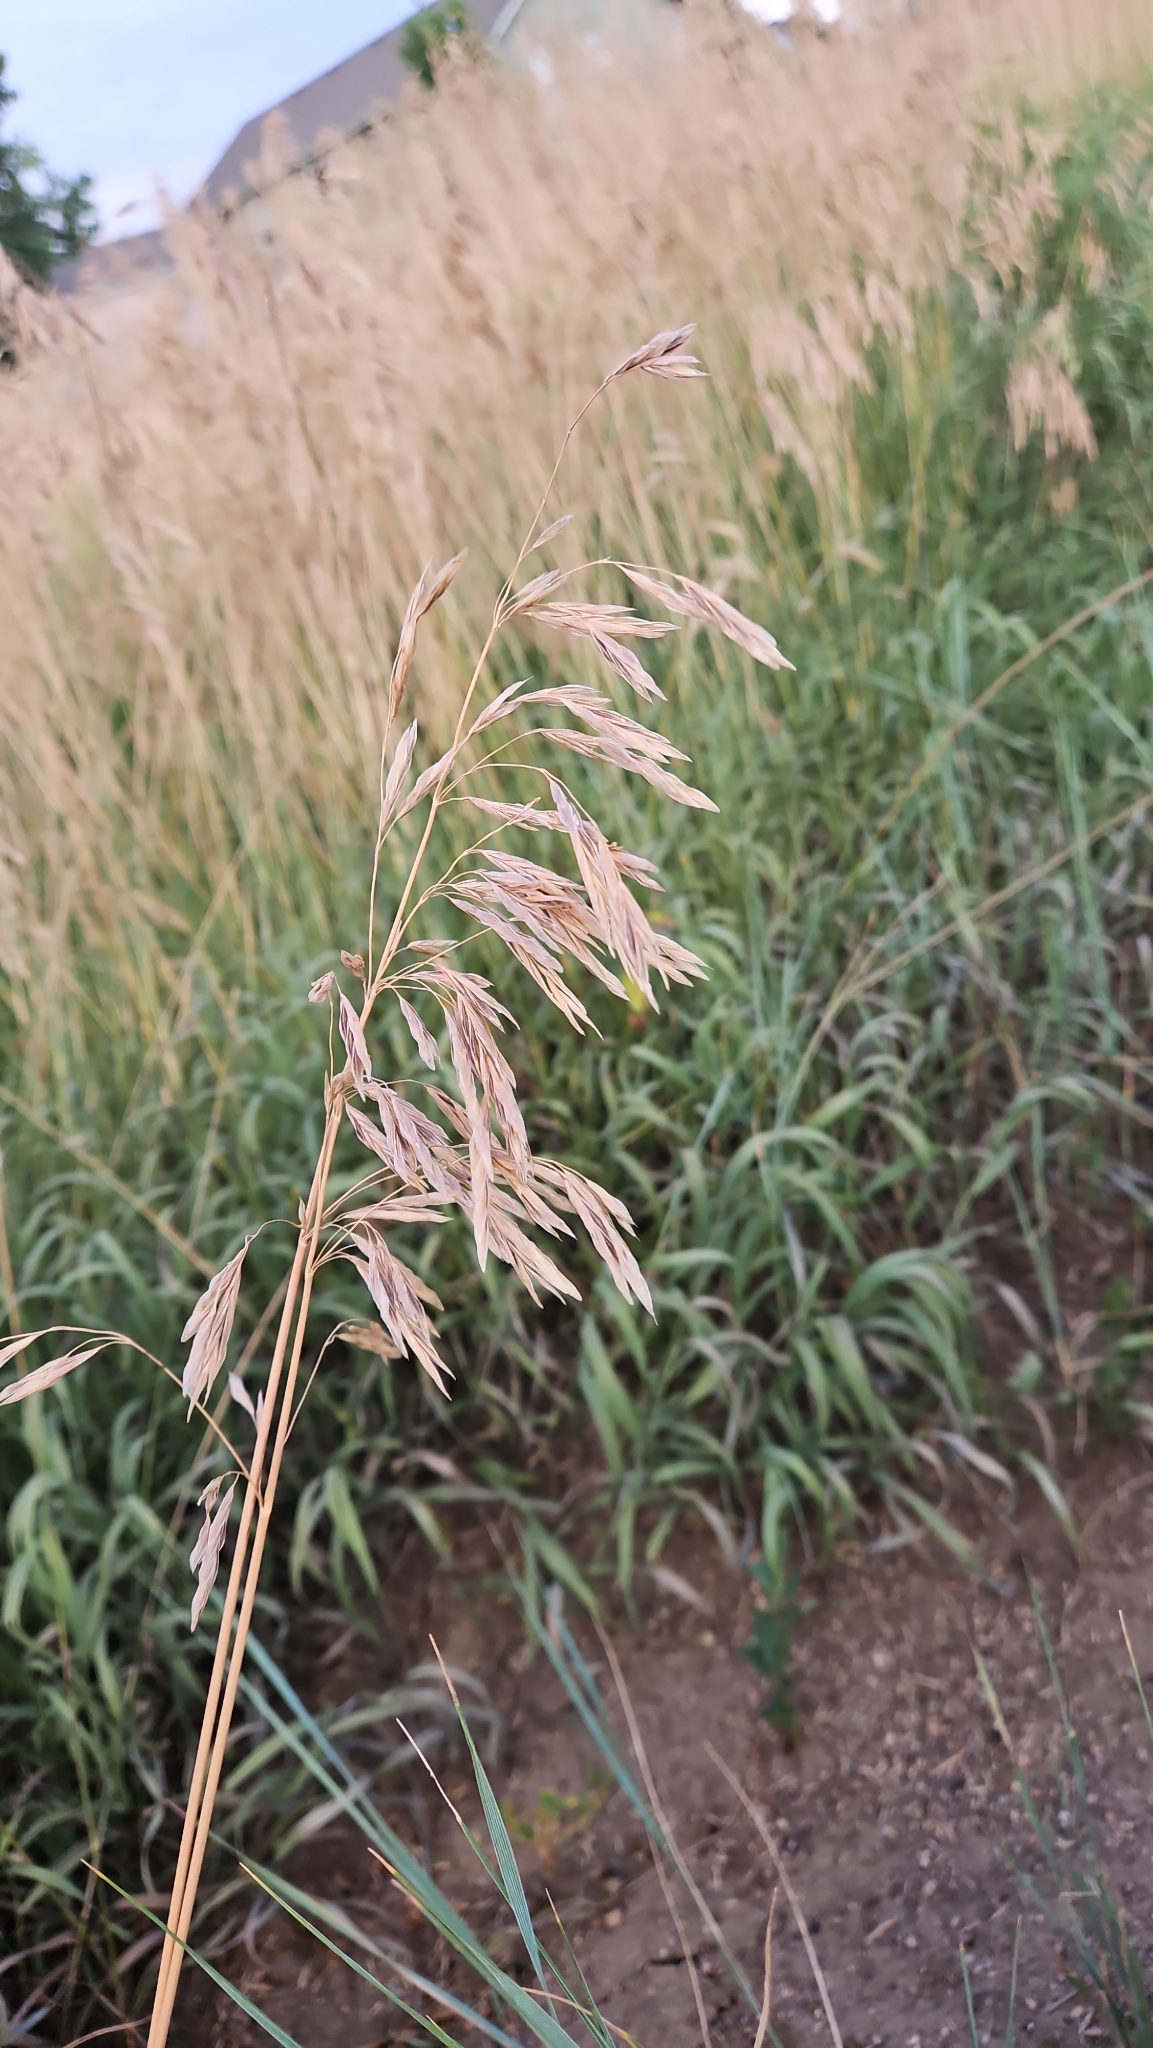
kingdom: Plantae
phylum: Tracheophyta
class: Liliopsida
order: Poales
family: Poaceae
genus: Bromus
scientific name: Bromus inermis
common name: Smooth brome
